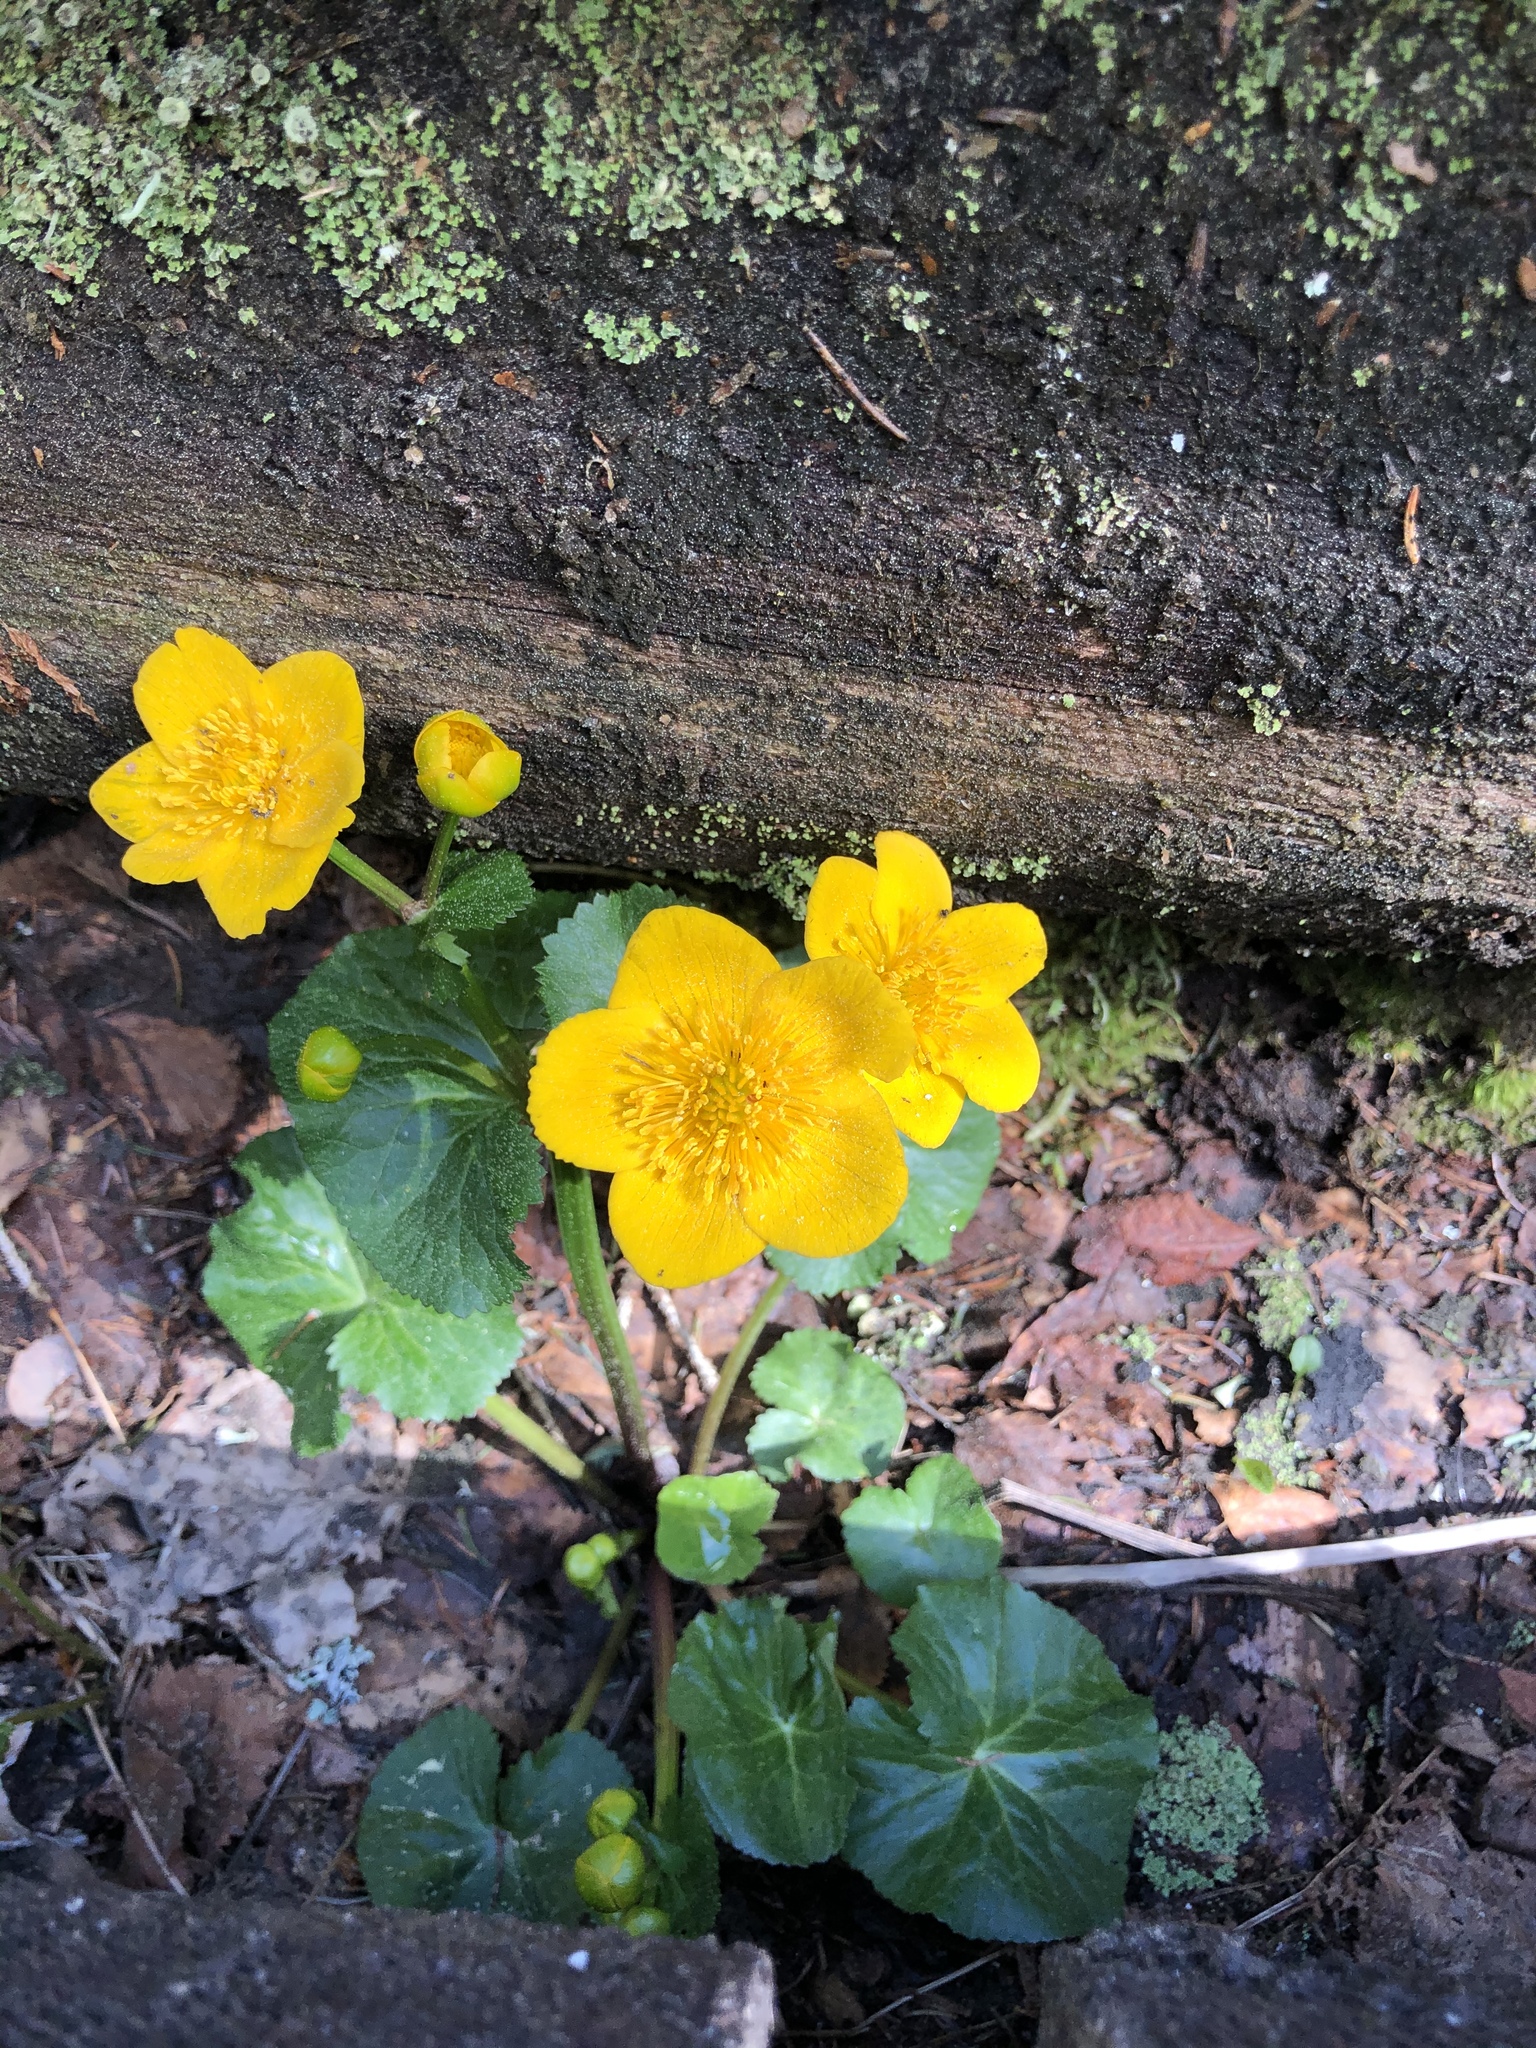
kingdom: Plantae
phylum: Tracheophyta
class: Magnoliopsida
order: Ranunculales
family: Ranunculaceae
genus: Caltha
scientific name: Caltha palustris
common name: Marsh marigold
